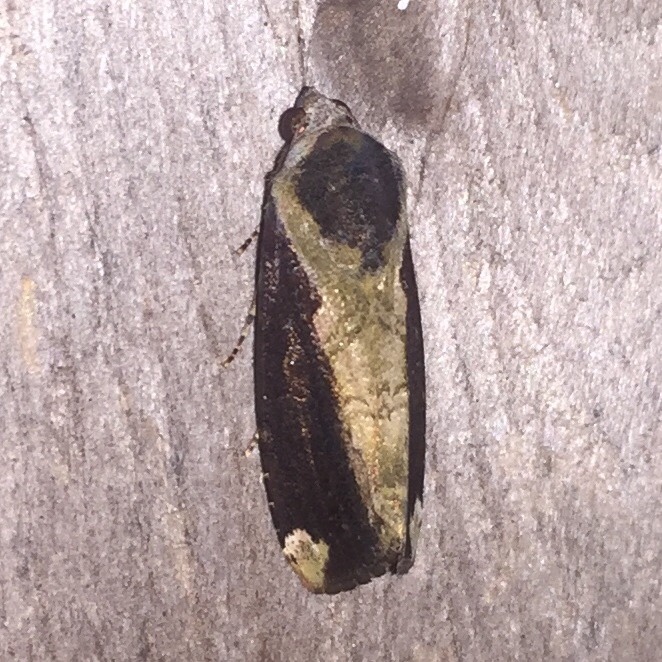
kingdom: Animalia
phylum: Arthropoda
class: Insecta
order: Lepidoptera
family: Noctuidae
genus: Magusa
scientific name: Magusa divaricata
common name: Orb narrow-winged moth
